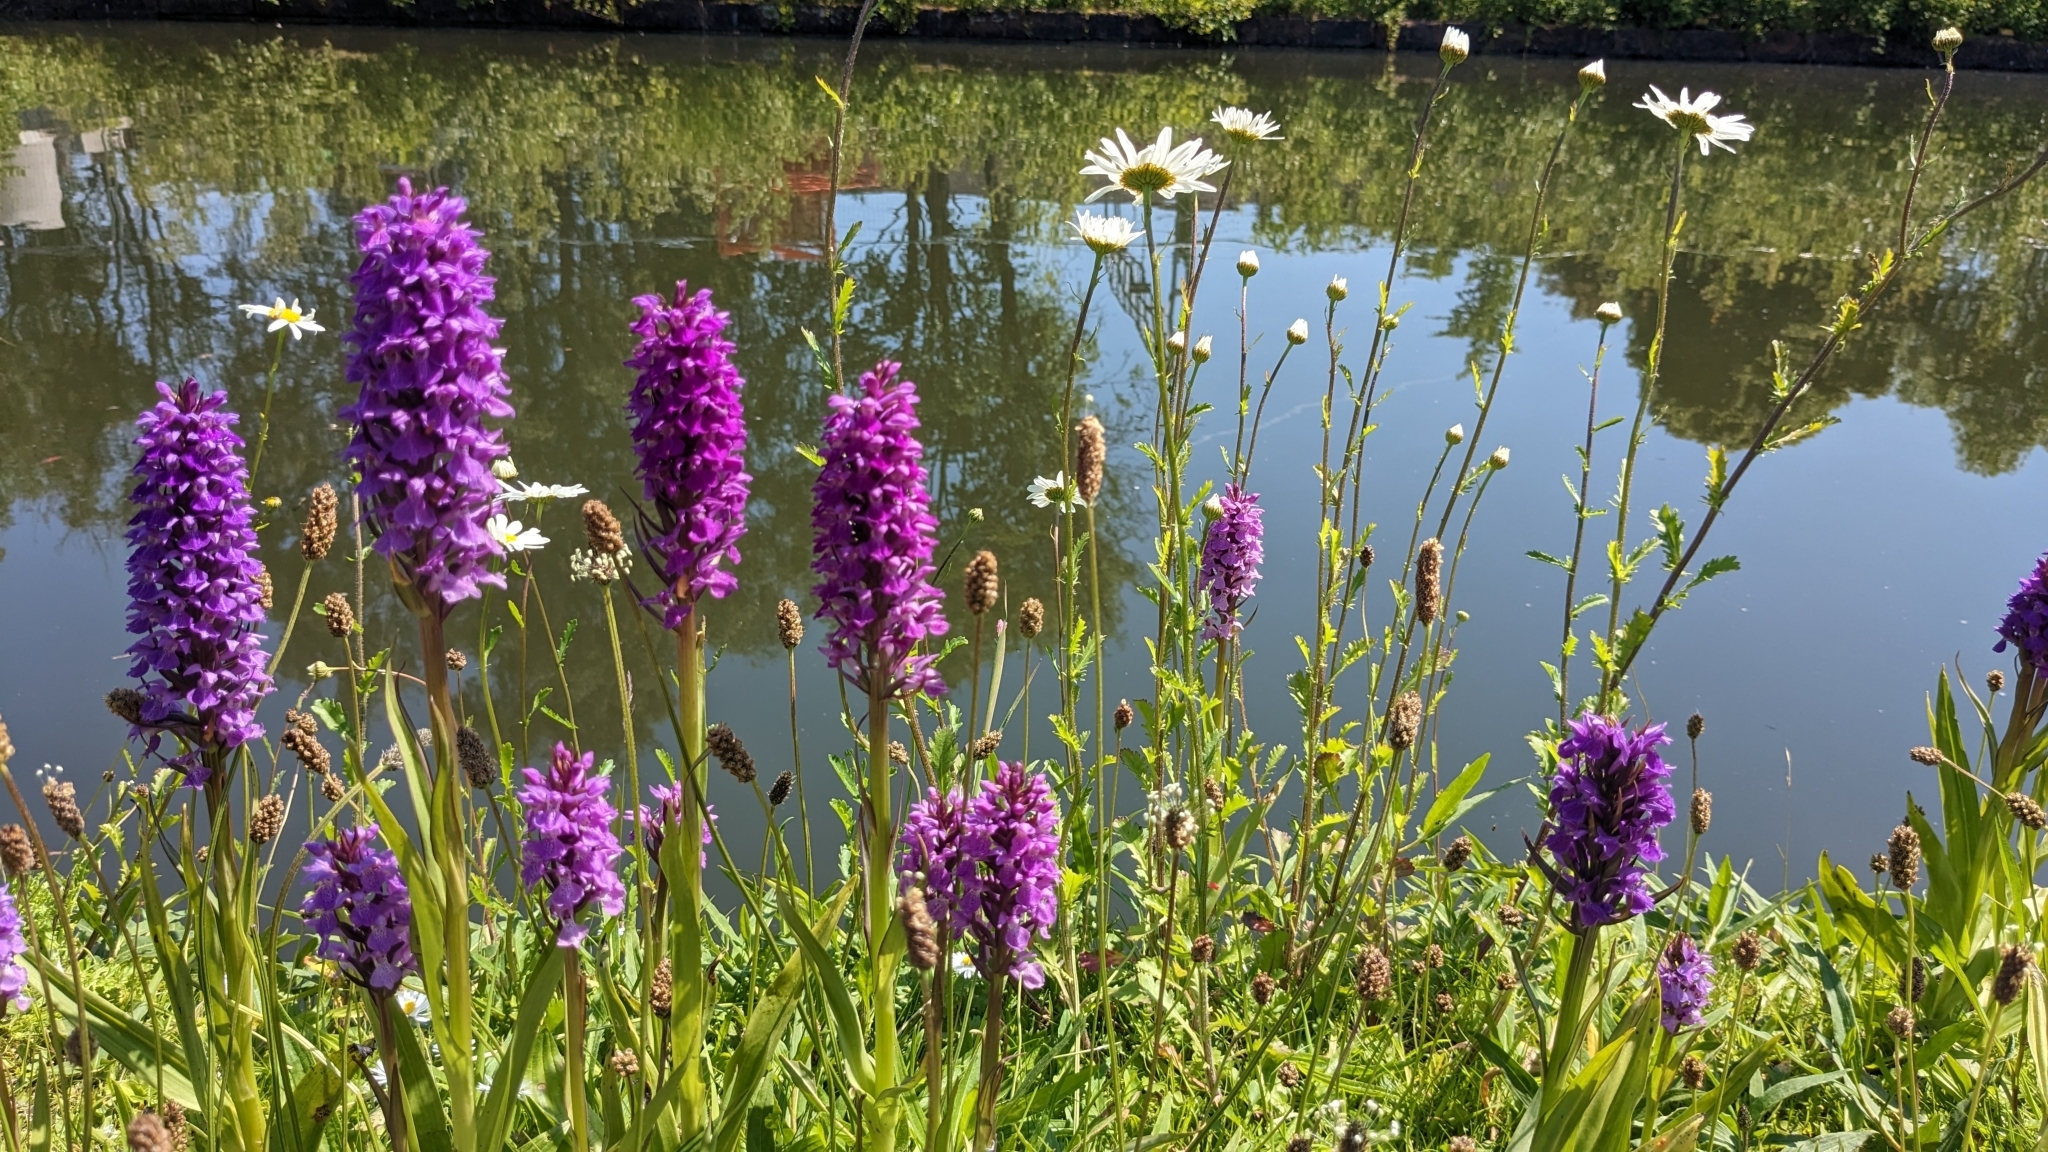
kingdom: Plantae
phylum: Tracheophyta
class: Liliopsida
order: Asparagales
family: Orchidaceae
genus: Dactylorhiza
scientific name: Dactylorhiza majalis
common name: Marsh orchid
